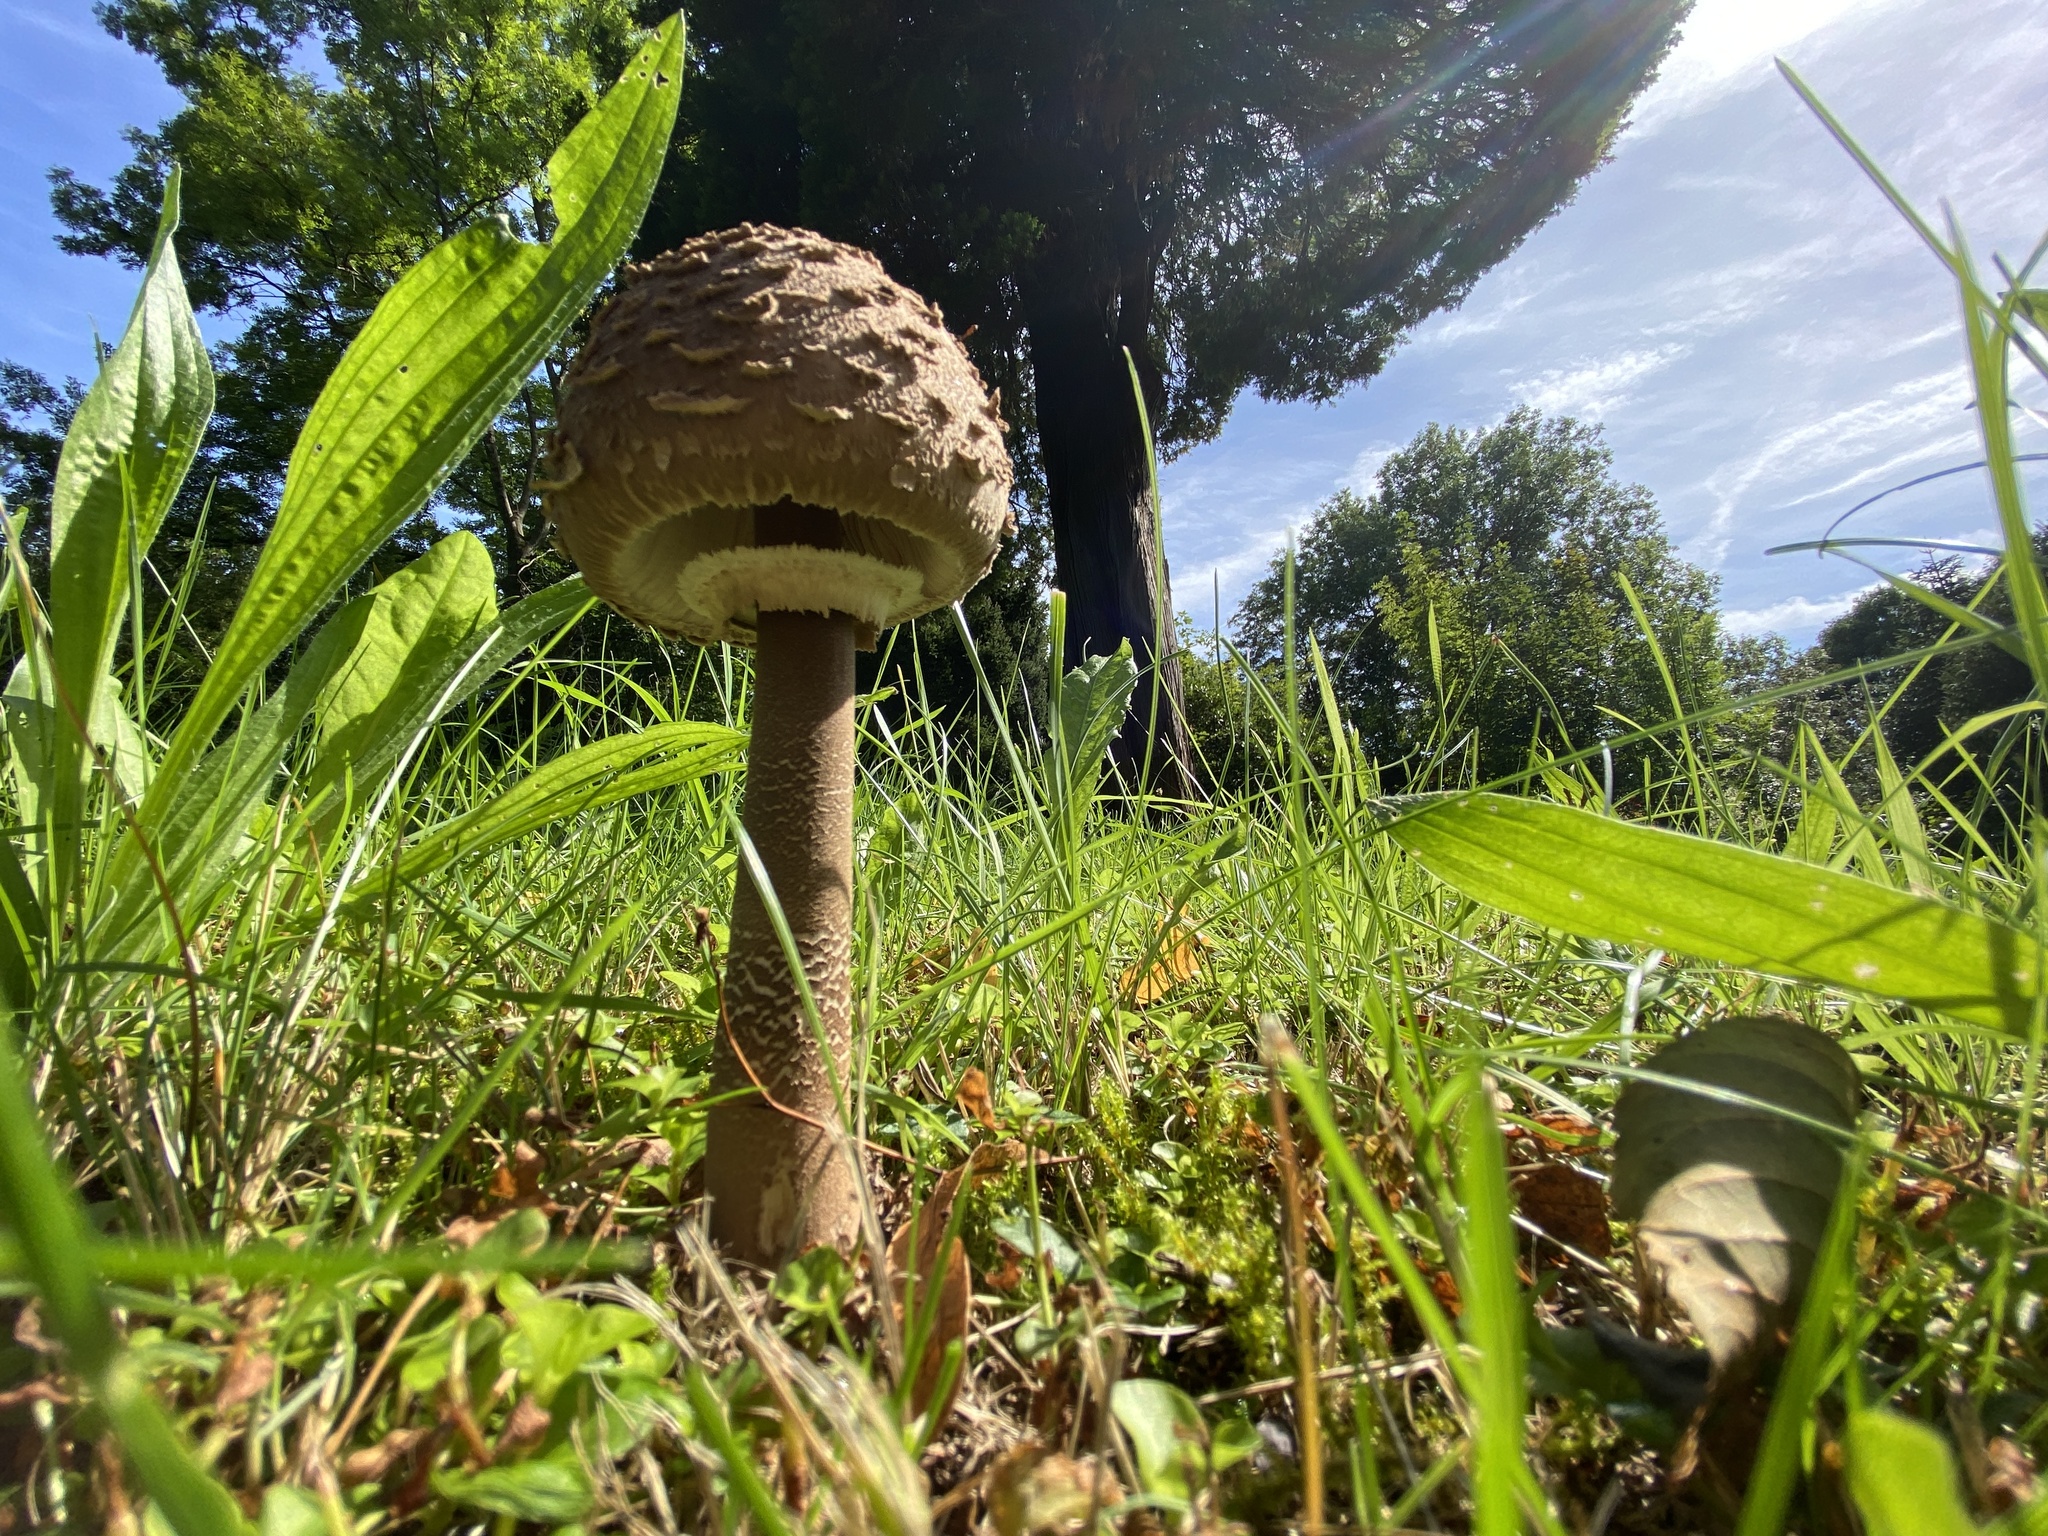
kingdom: Fungi
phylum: Basidiomycota
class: Agaricomycetes
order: Agaricales
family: Agaricaceae
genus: Macrolepiota
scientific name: Macrolepiota procera
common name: Parasol
